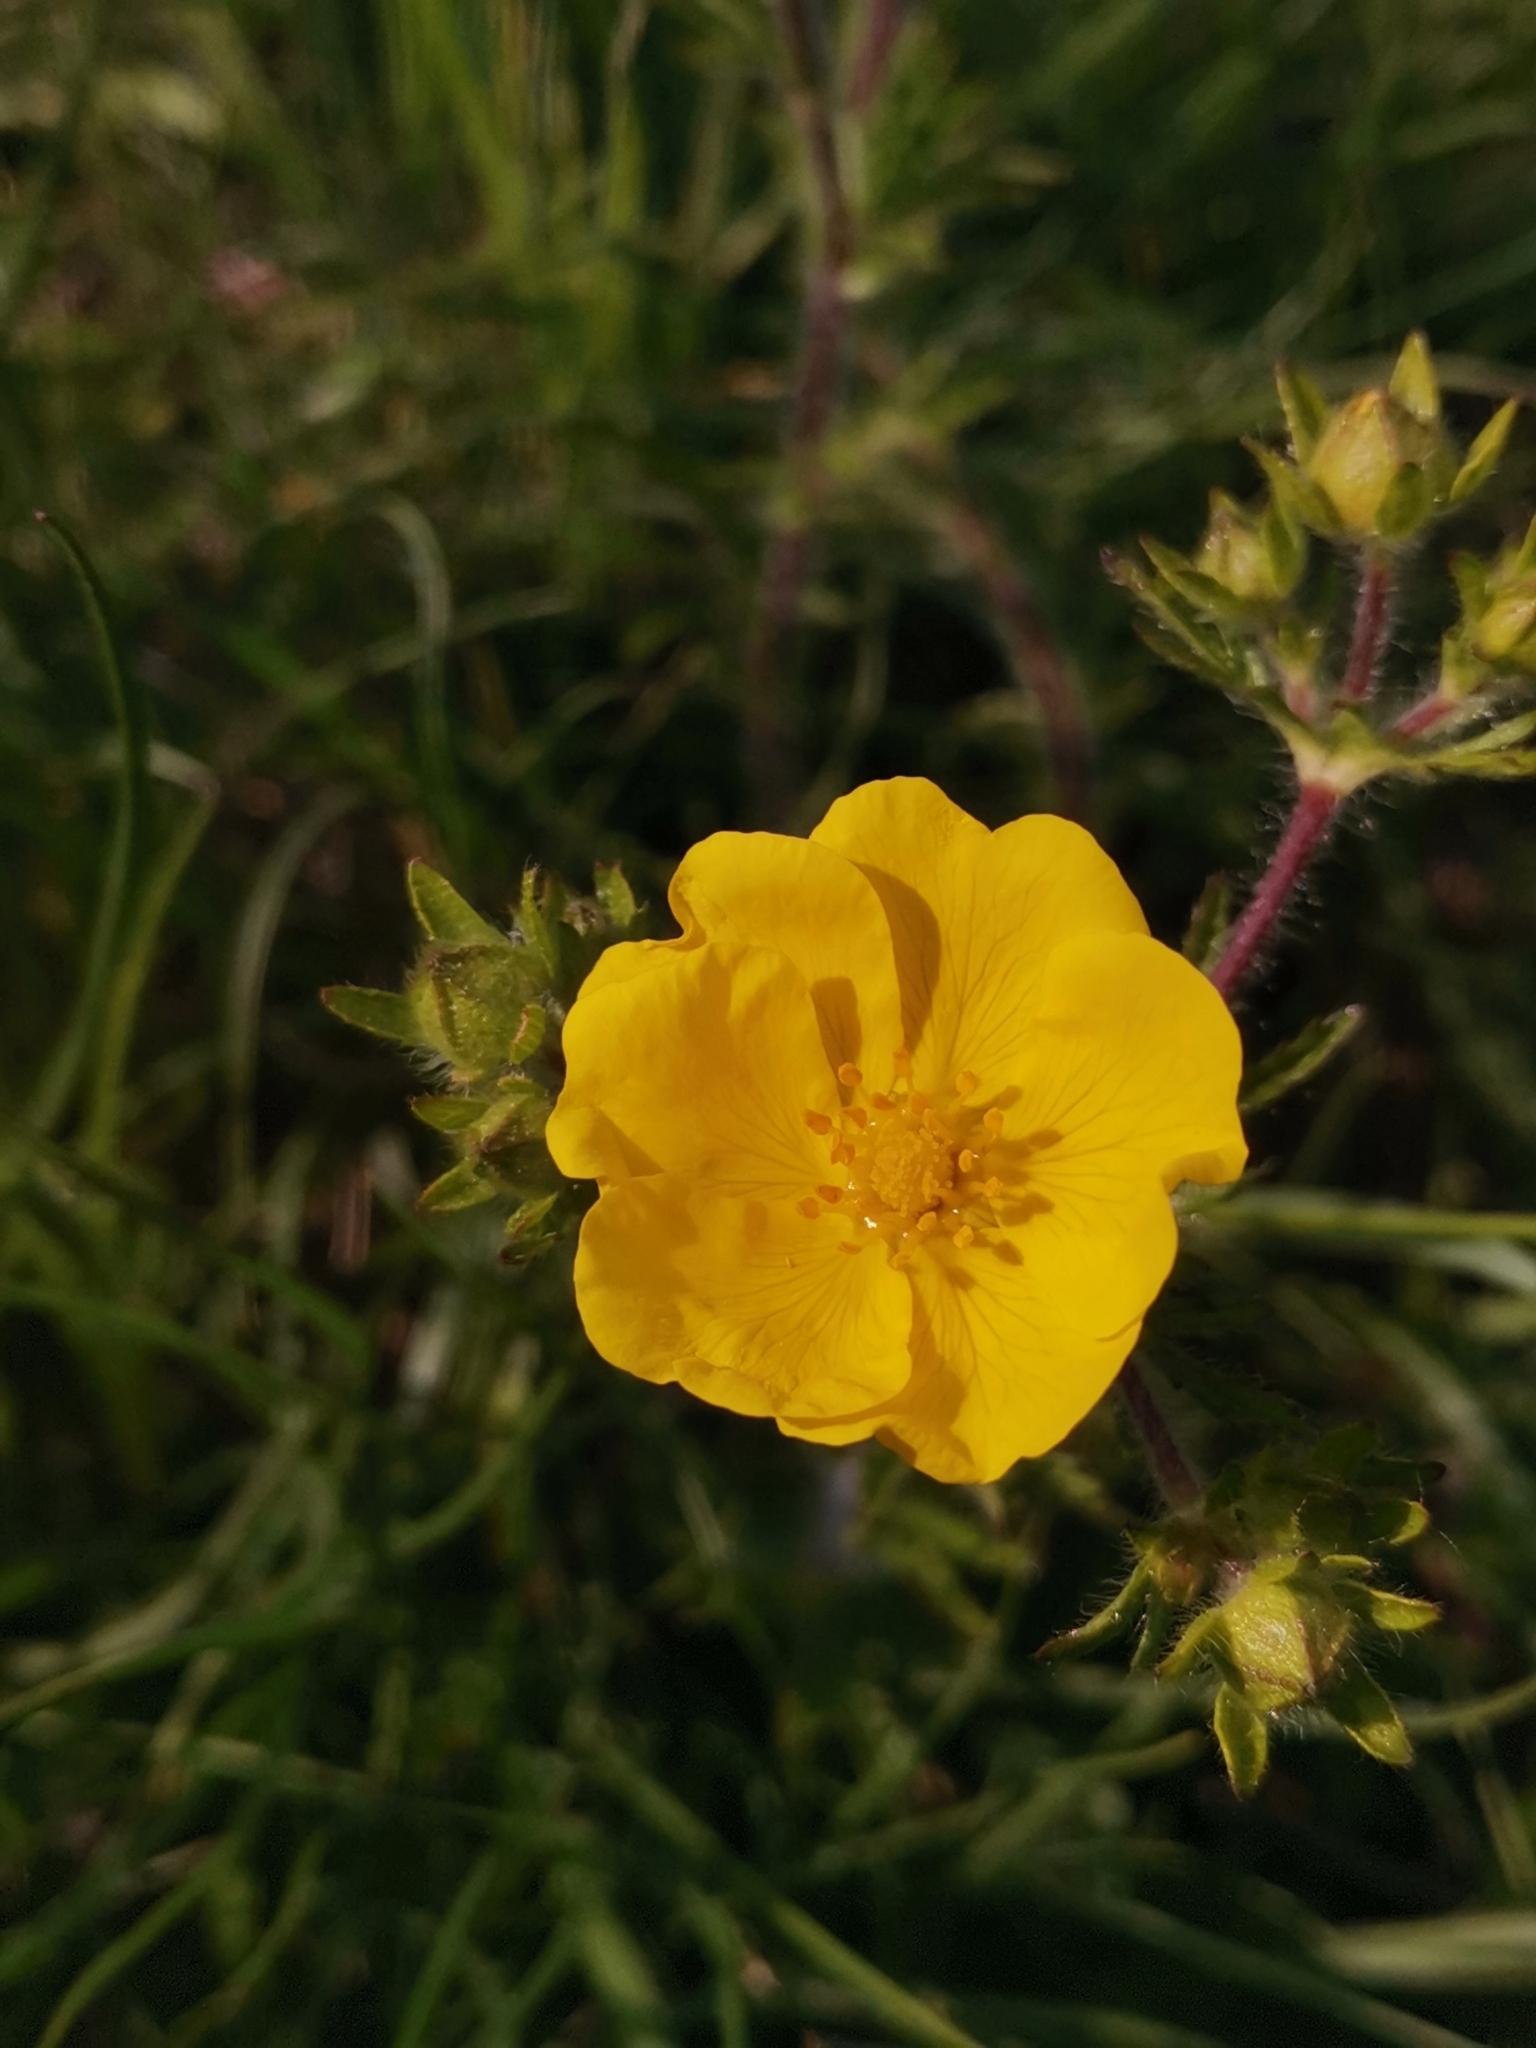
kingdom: Plantae
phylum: Tracheophyta
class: Magnoliopsida
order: Rosales
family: Rosaceae
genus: Potentilla
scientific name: Potentilla hirta
